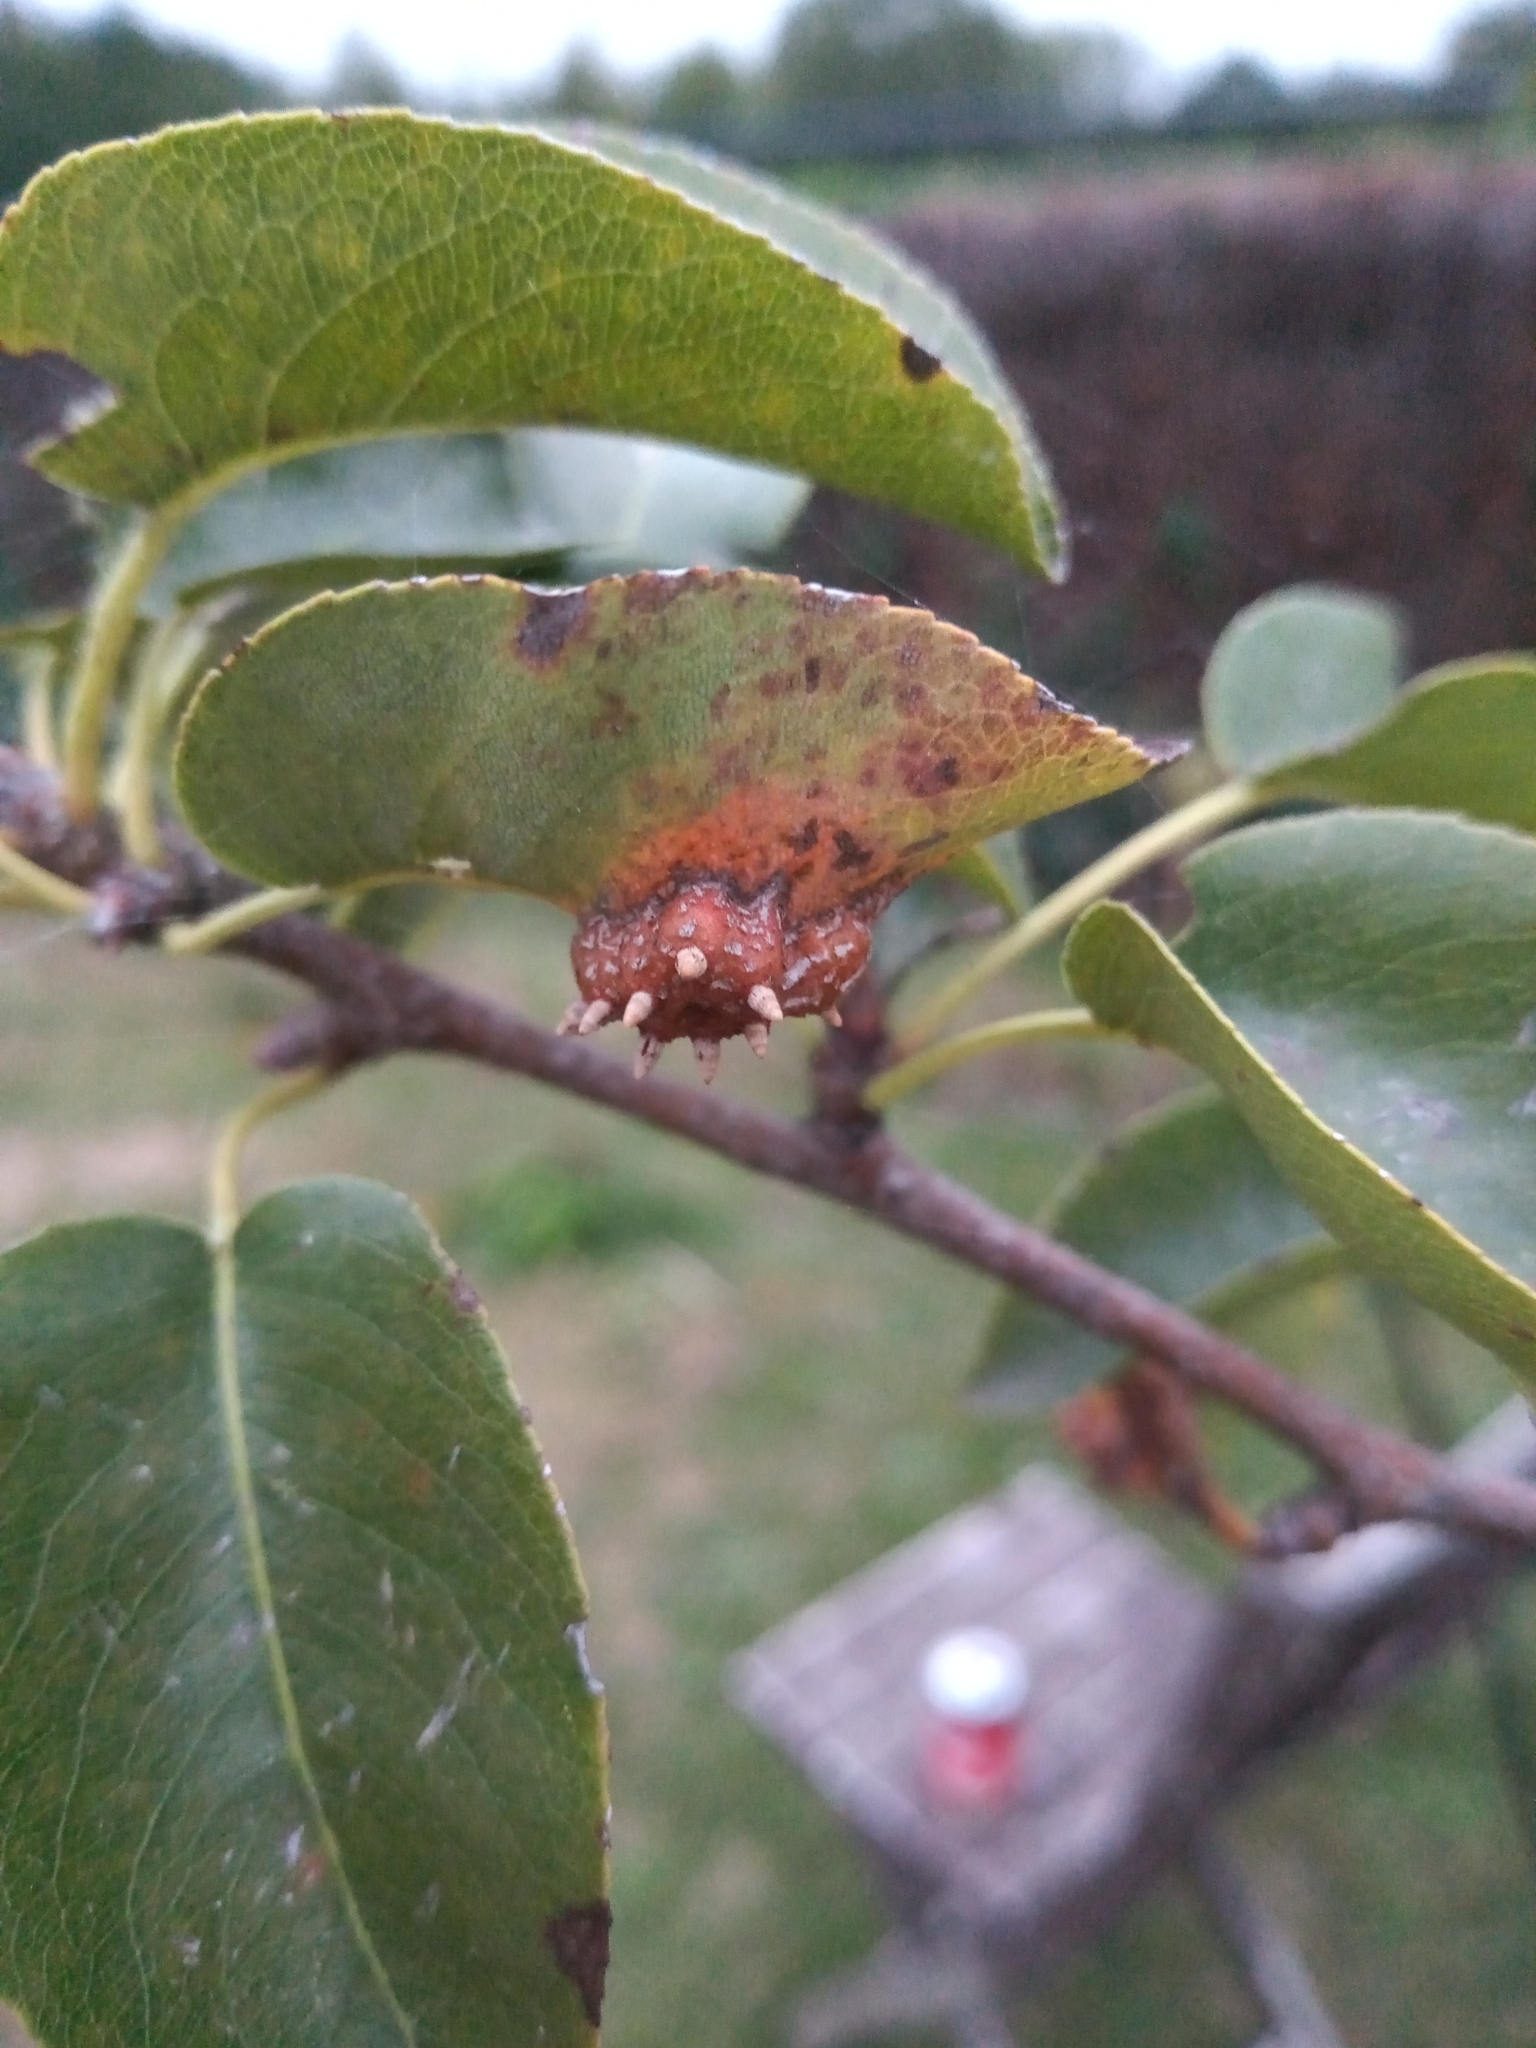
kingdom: Fungi
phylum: Basidiomycota
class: Pucciniomycetes
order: Pucciniales
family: Gymnosporangiaceae
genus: Gymnosporangium
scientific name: Gymnosporangium sabinae
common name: Pear trellis rust fungus
